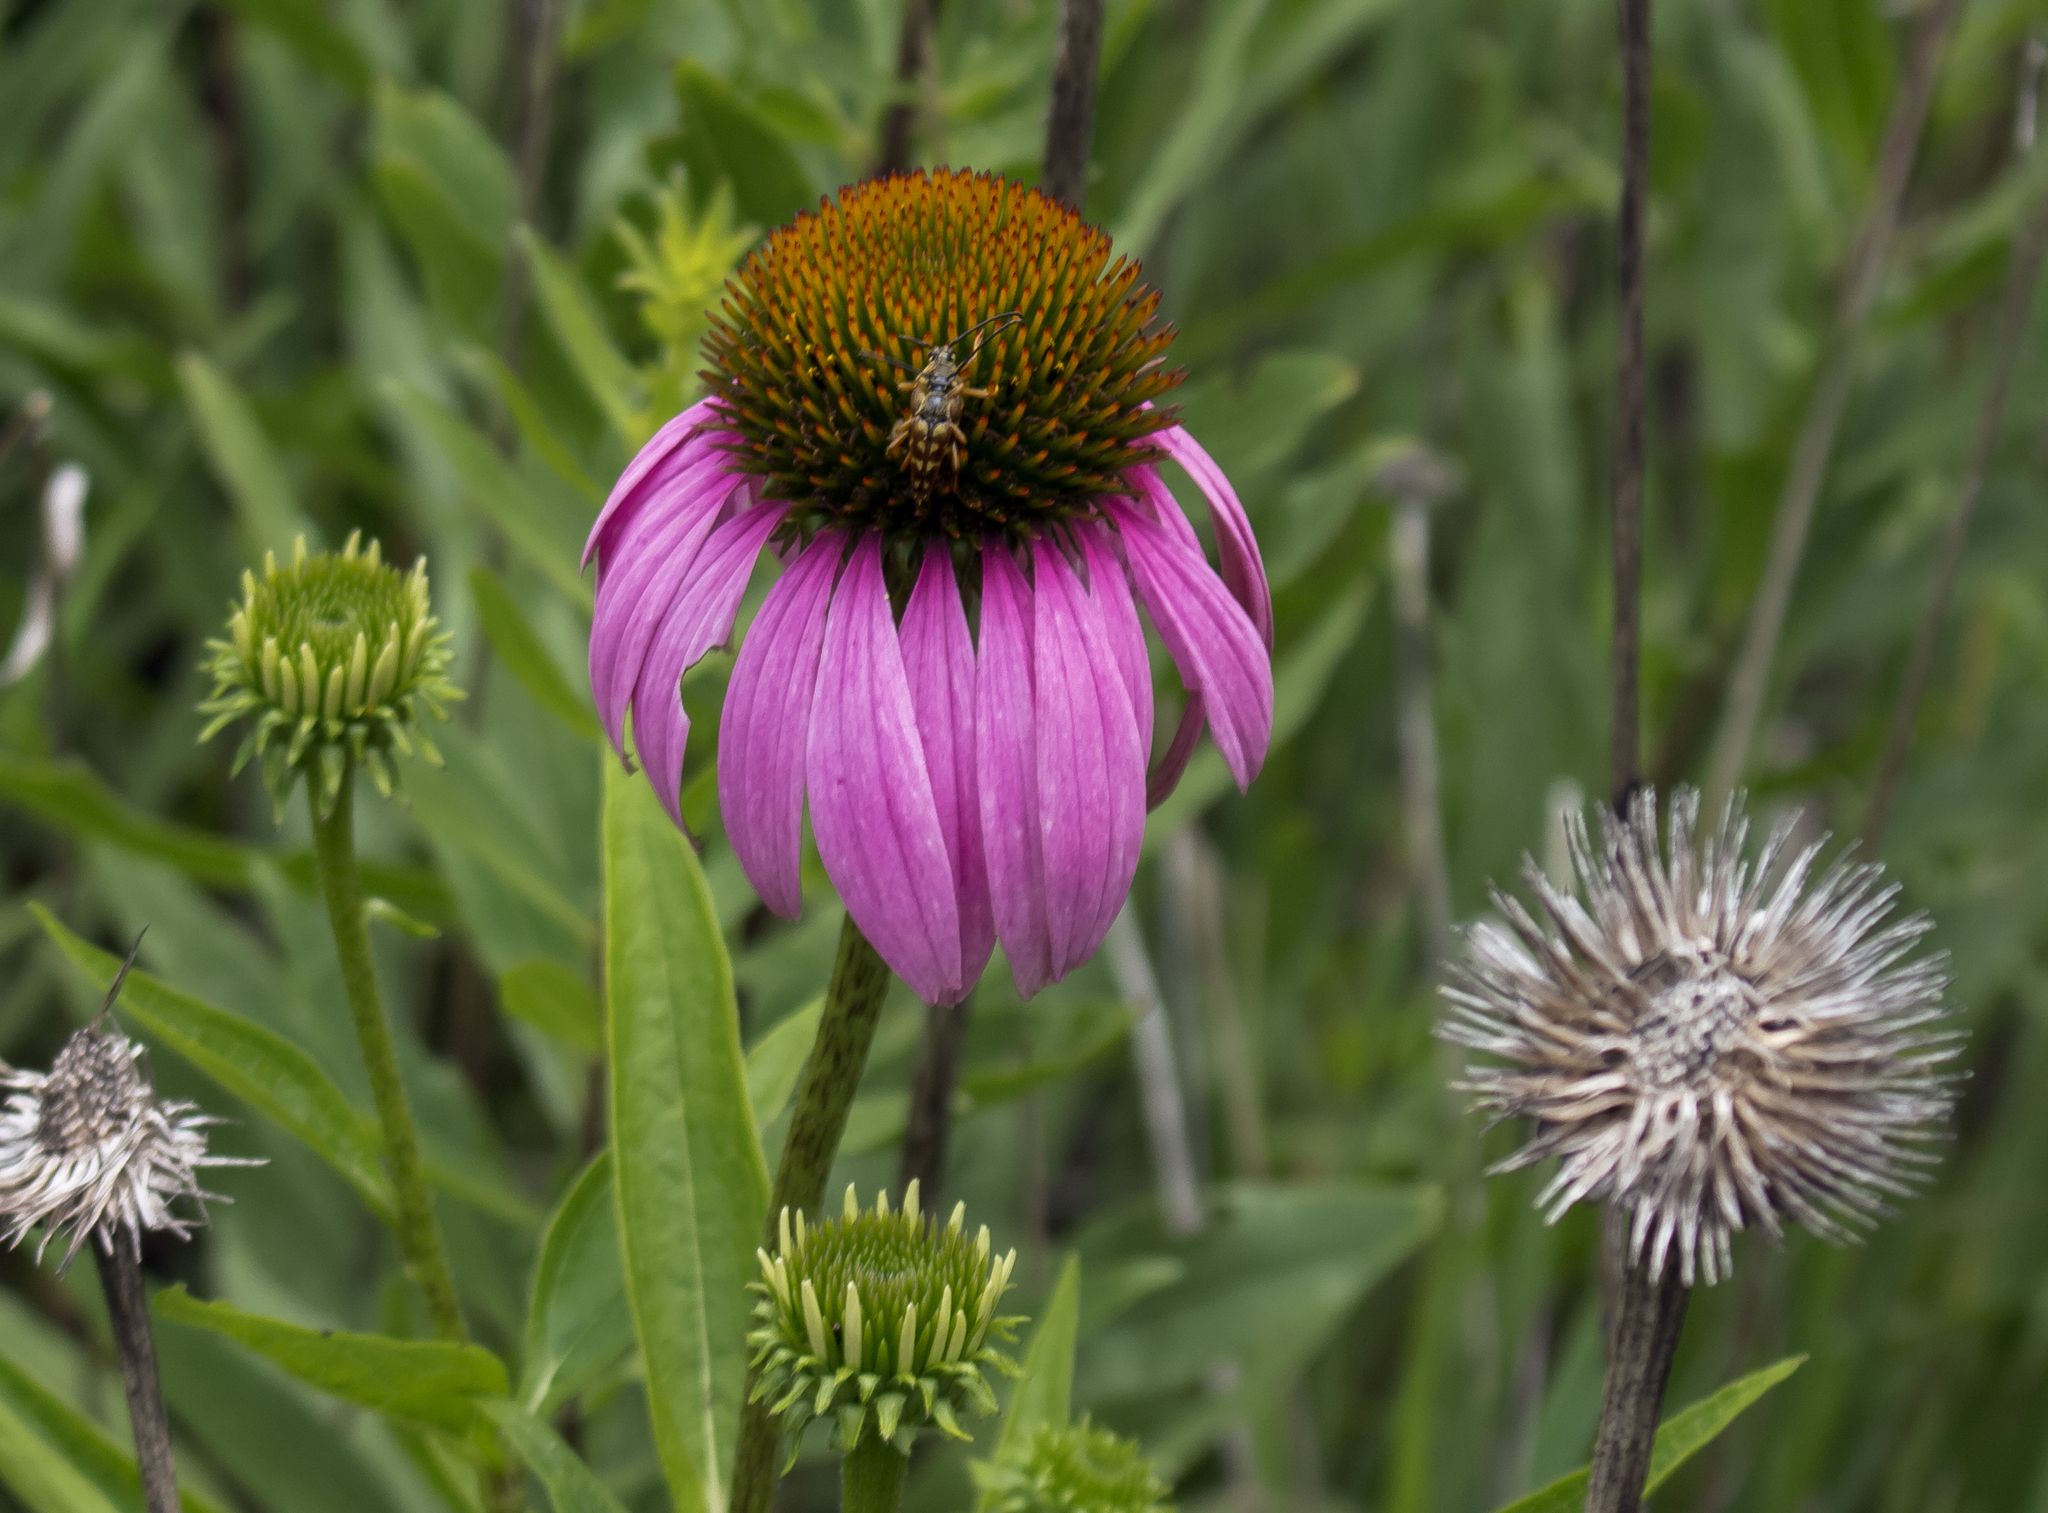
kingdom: Plantae
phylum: Tracheophyta
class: Magnoliopsida
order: Asterales
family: Asteraceae
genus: Echinacea
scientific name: Echinacea purpurea
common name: Broad-leaved purple coneflower
